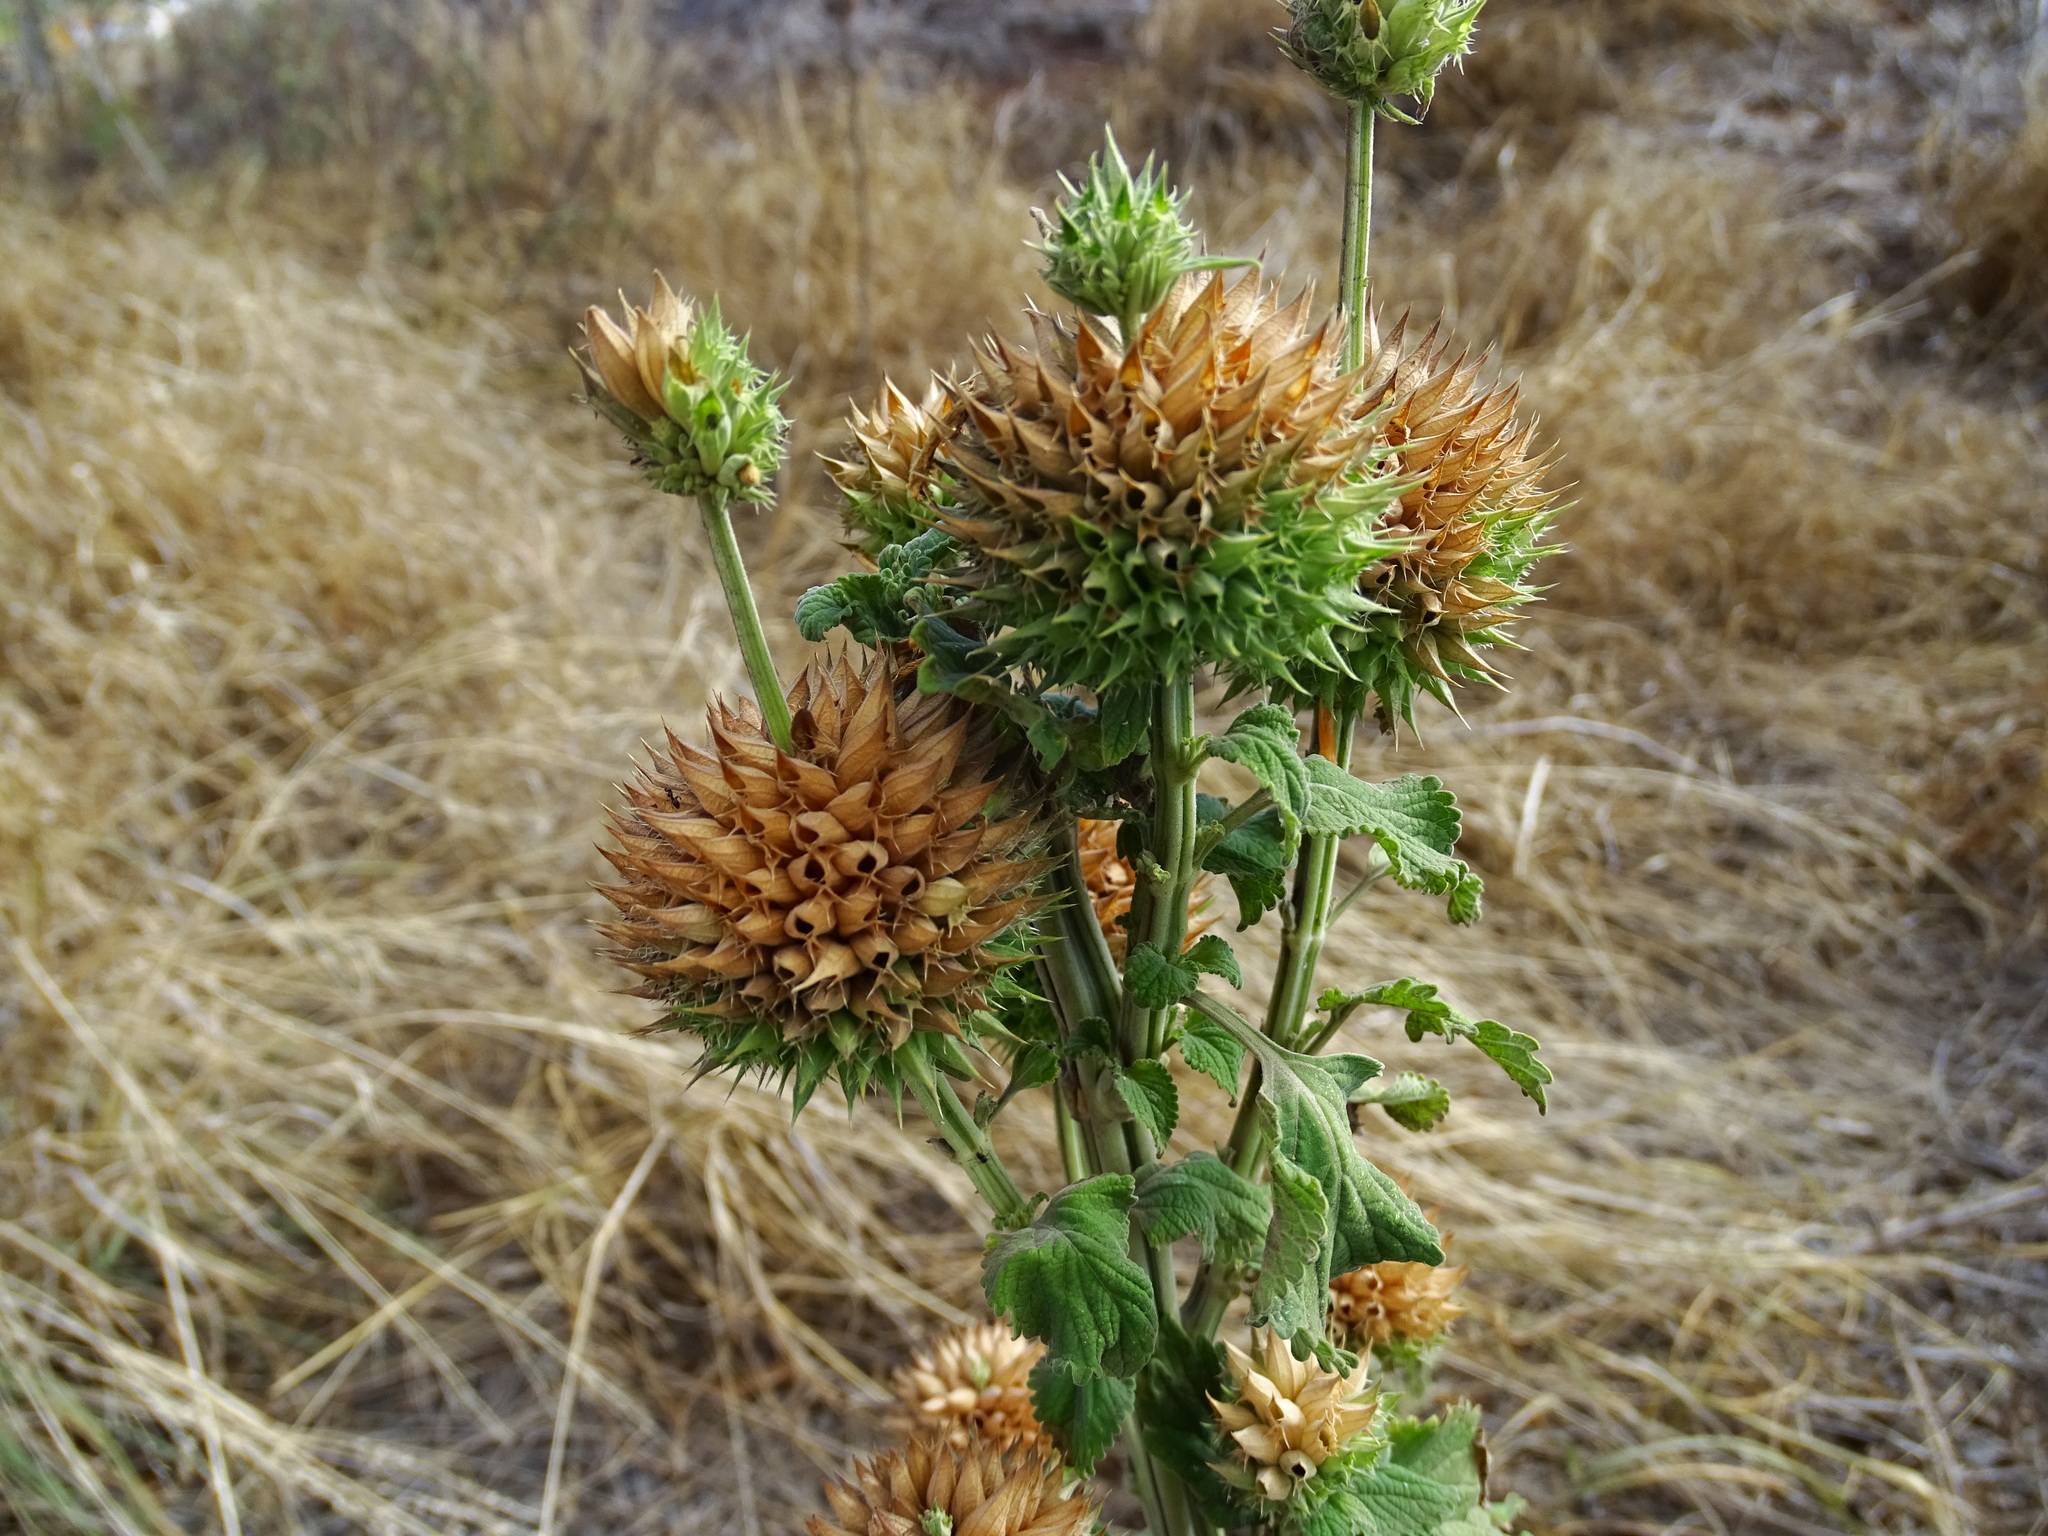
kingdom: Plantae
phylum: Tracheophyta
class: Magnoliopsida
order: Lamiales
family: Lamiaceae
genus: Leonotis
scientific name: Leonotis nepetifolia
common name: Christmas candlestick
